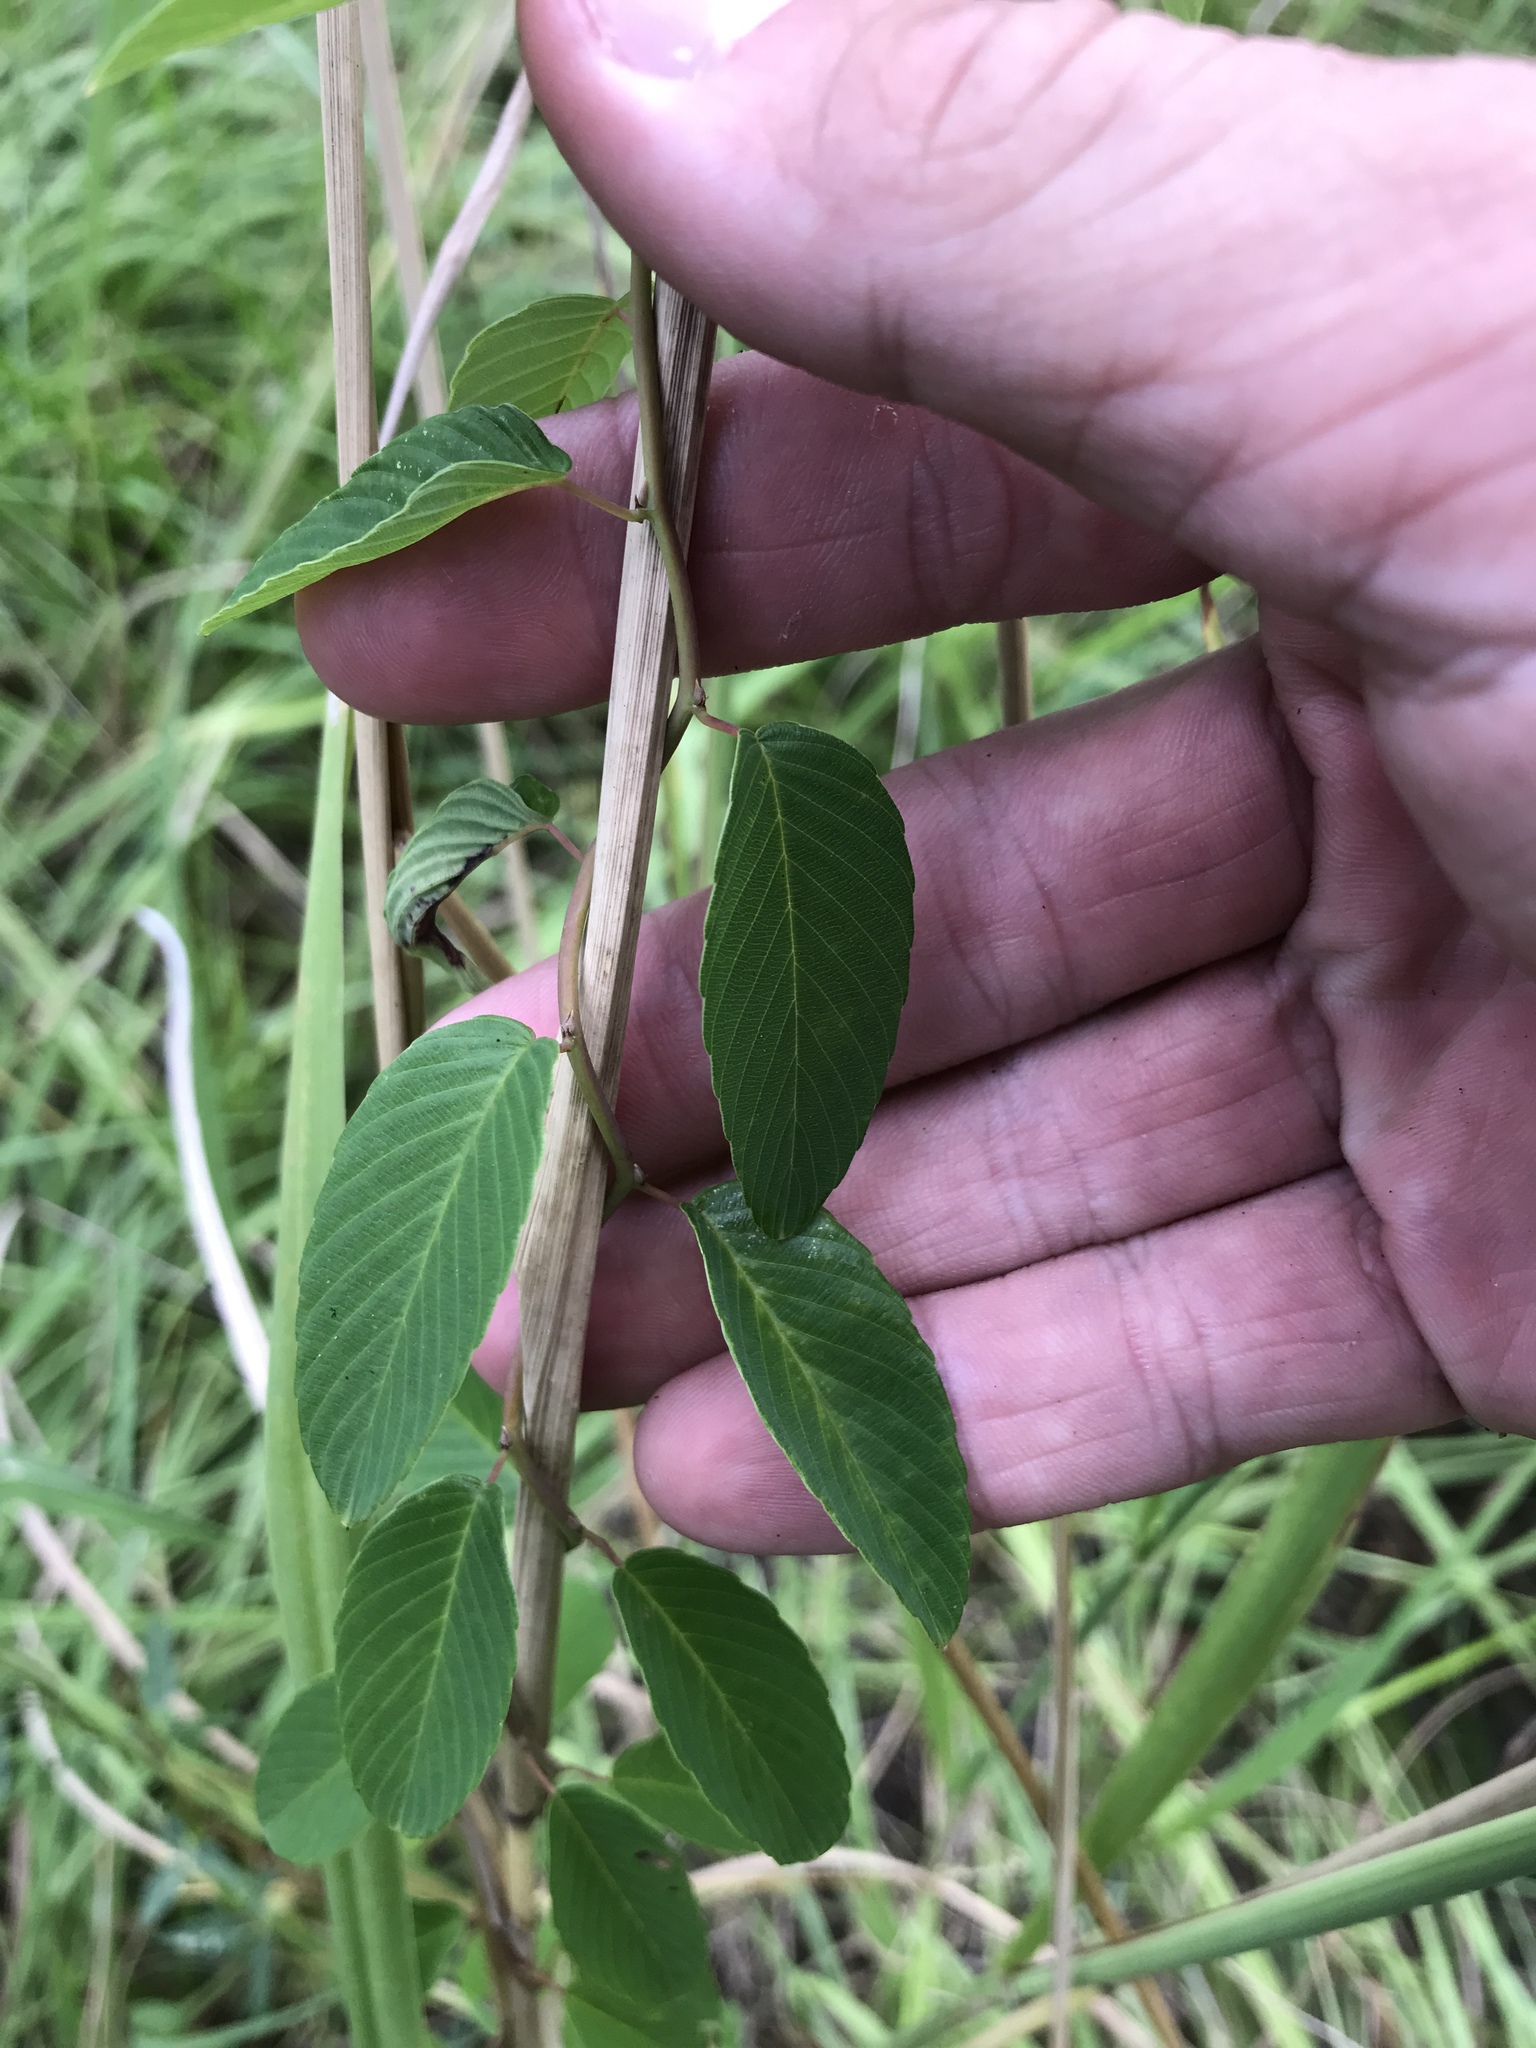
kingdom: Plantae
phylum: Tracheophyta
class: Magnoliopsida
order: Rosales
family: Rhamnaceae
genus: Berchemia
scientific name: Berchemia scandens
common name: Supplejack
